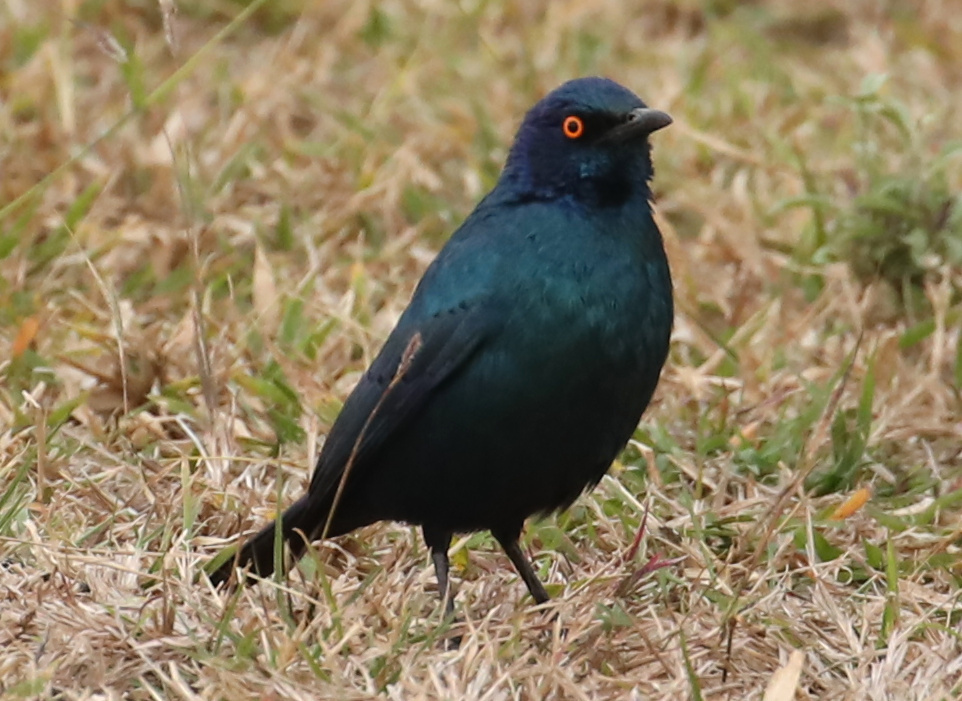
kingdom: Animalia
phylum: Chordata
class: Aves
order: Passeriformes
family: Sturnidae
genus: Lamprotornis
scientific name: Lamprotornis nitens
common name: Cape starling
